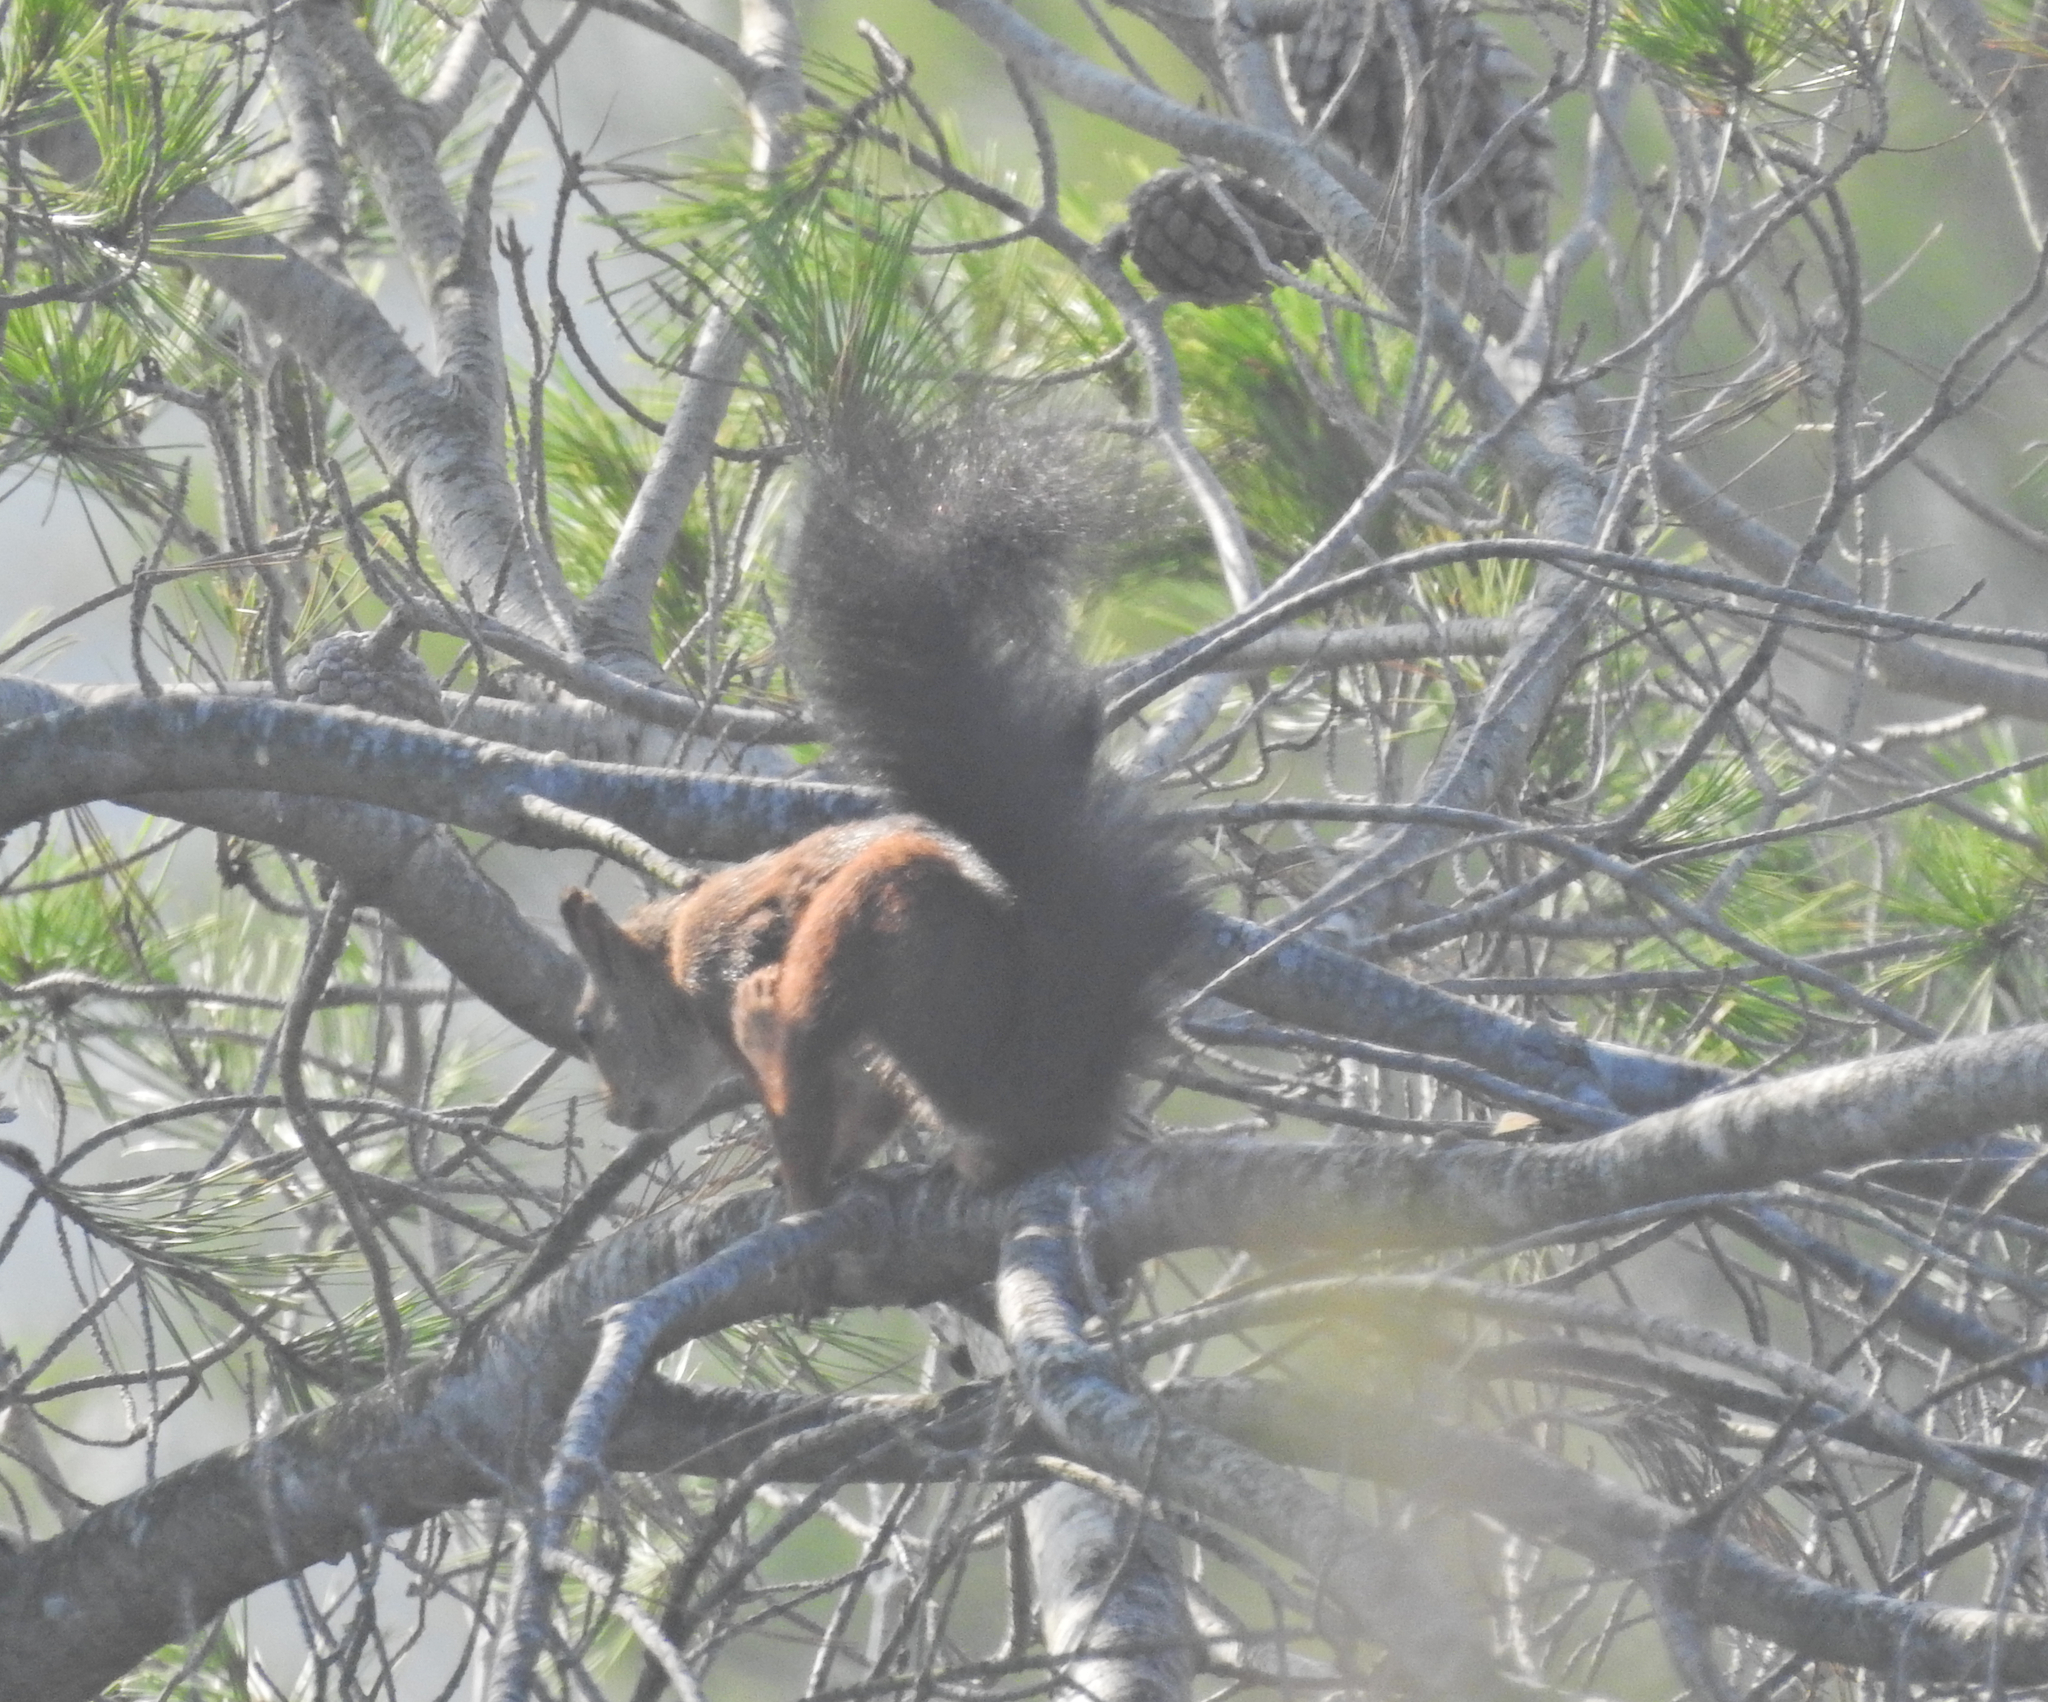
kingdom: Animalia
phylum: Chordata
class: Mammalia
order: Rodentia
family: Sciuridae
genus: Sciurus
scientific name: Sciurus vulgaris
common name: Eurasian red squirrel
